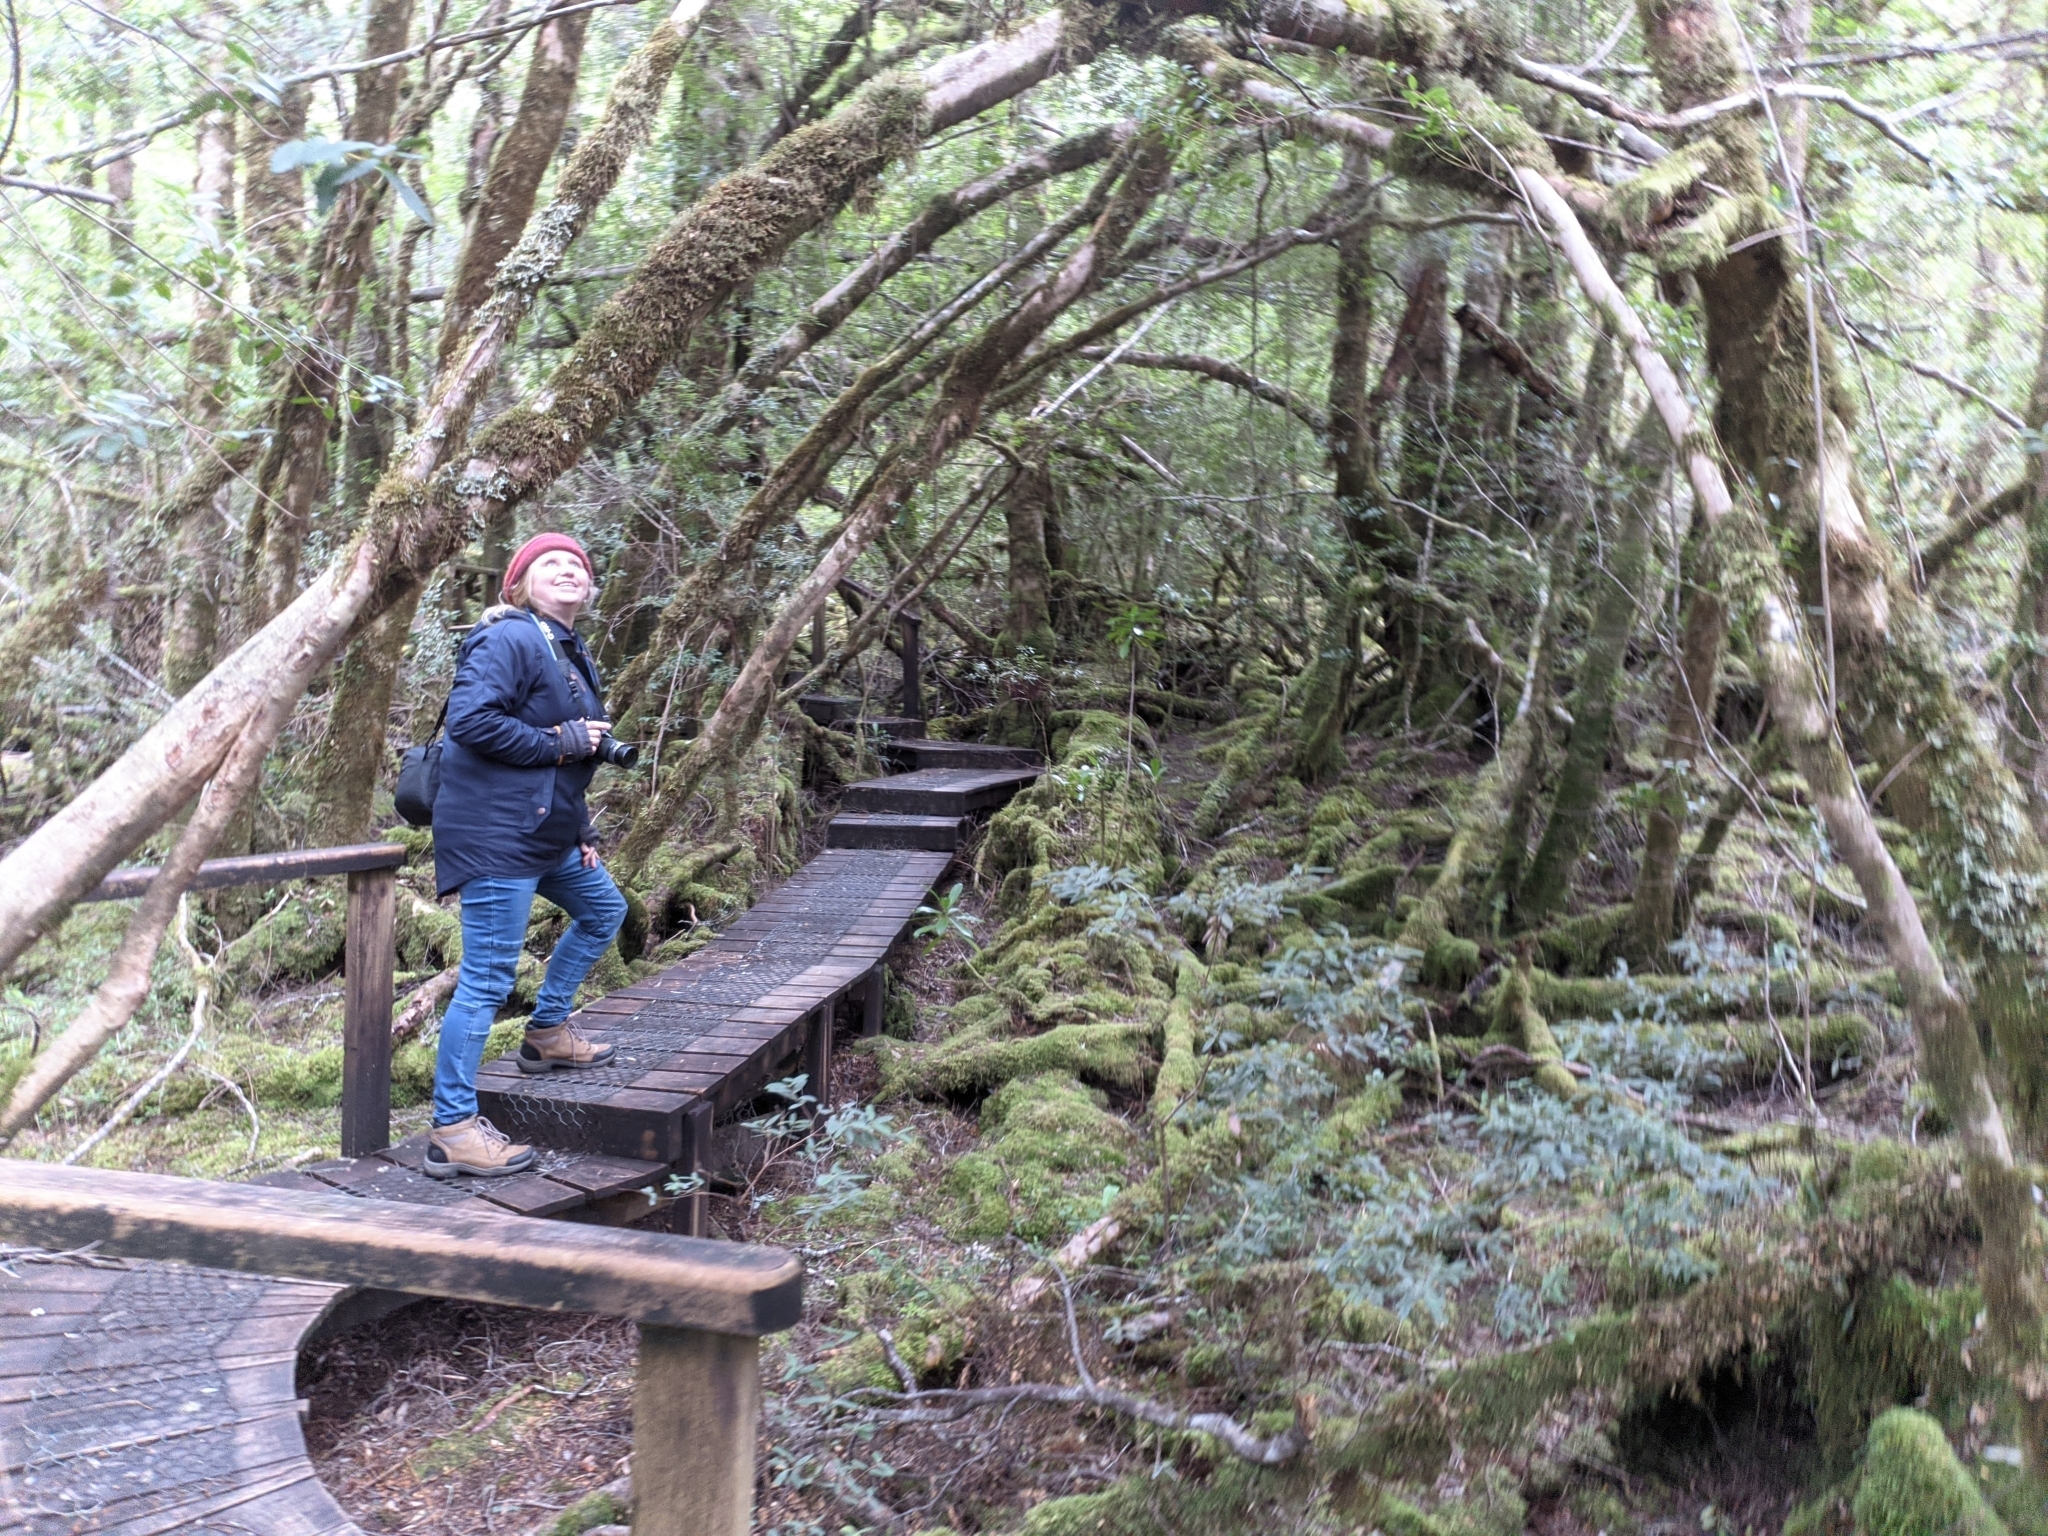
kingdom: Plantae
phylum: Tracheophyta
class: Magnoliopsida
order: Oxalidales
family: Cunoniaceae
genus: Anodopetalum
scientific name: Anodopetalum biglandulosum
